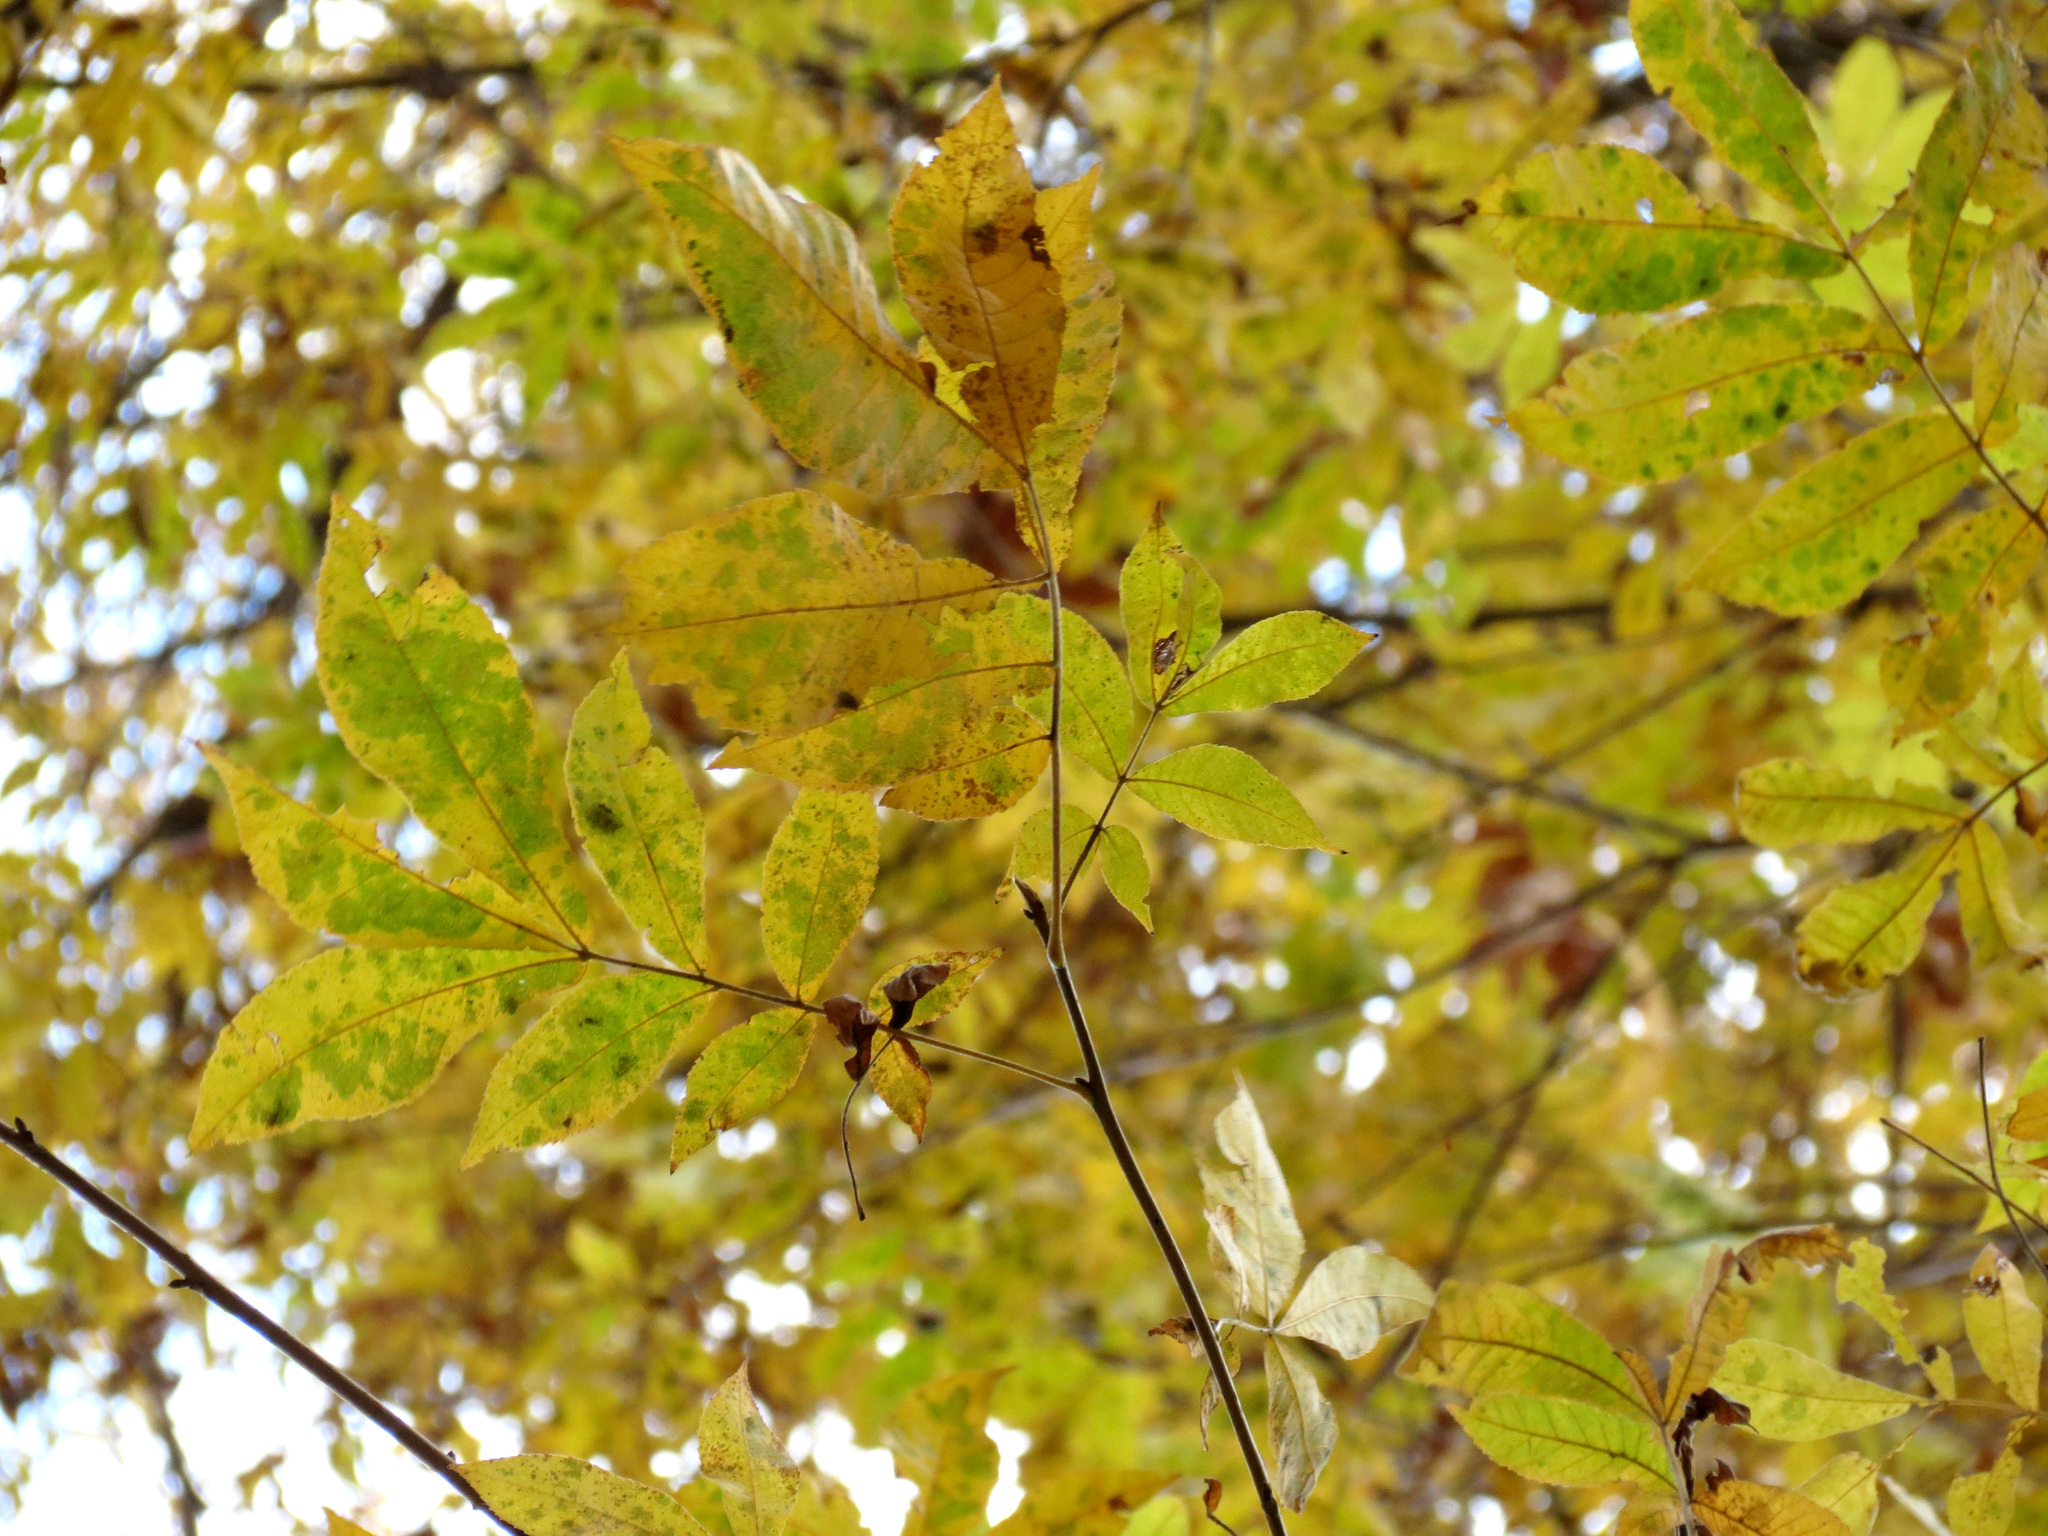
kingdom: Plantae
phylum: Tracheophyta
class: Magnoliopsida
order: Fagales
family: Juglandaceae
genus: Carya
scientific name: Carya cordiformis
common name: Bitternut hickory
